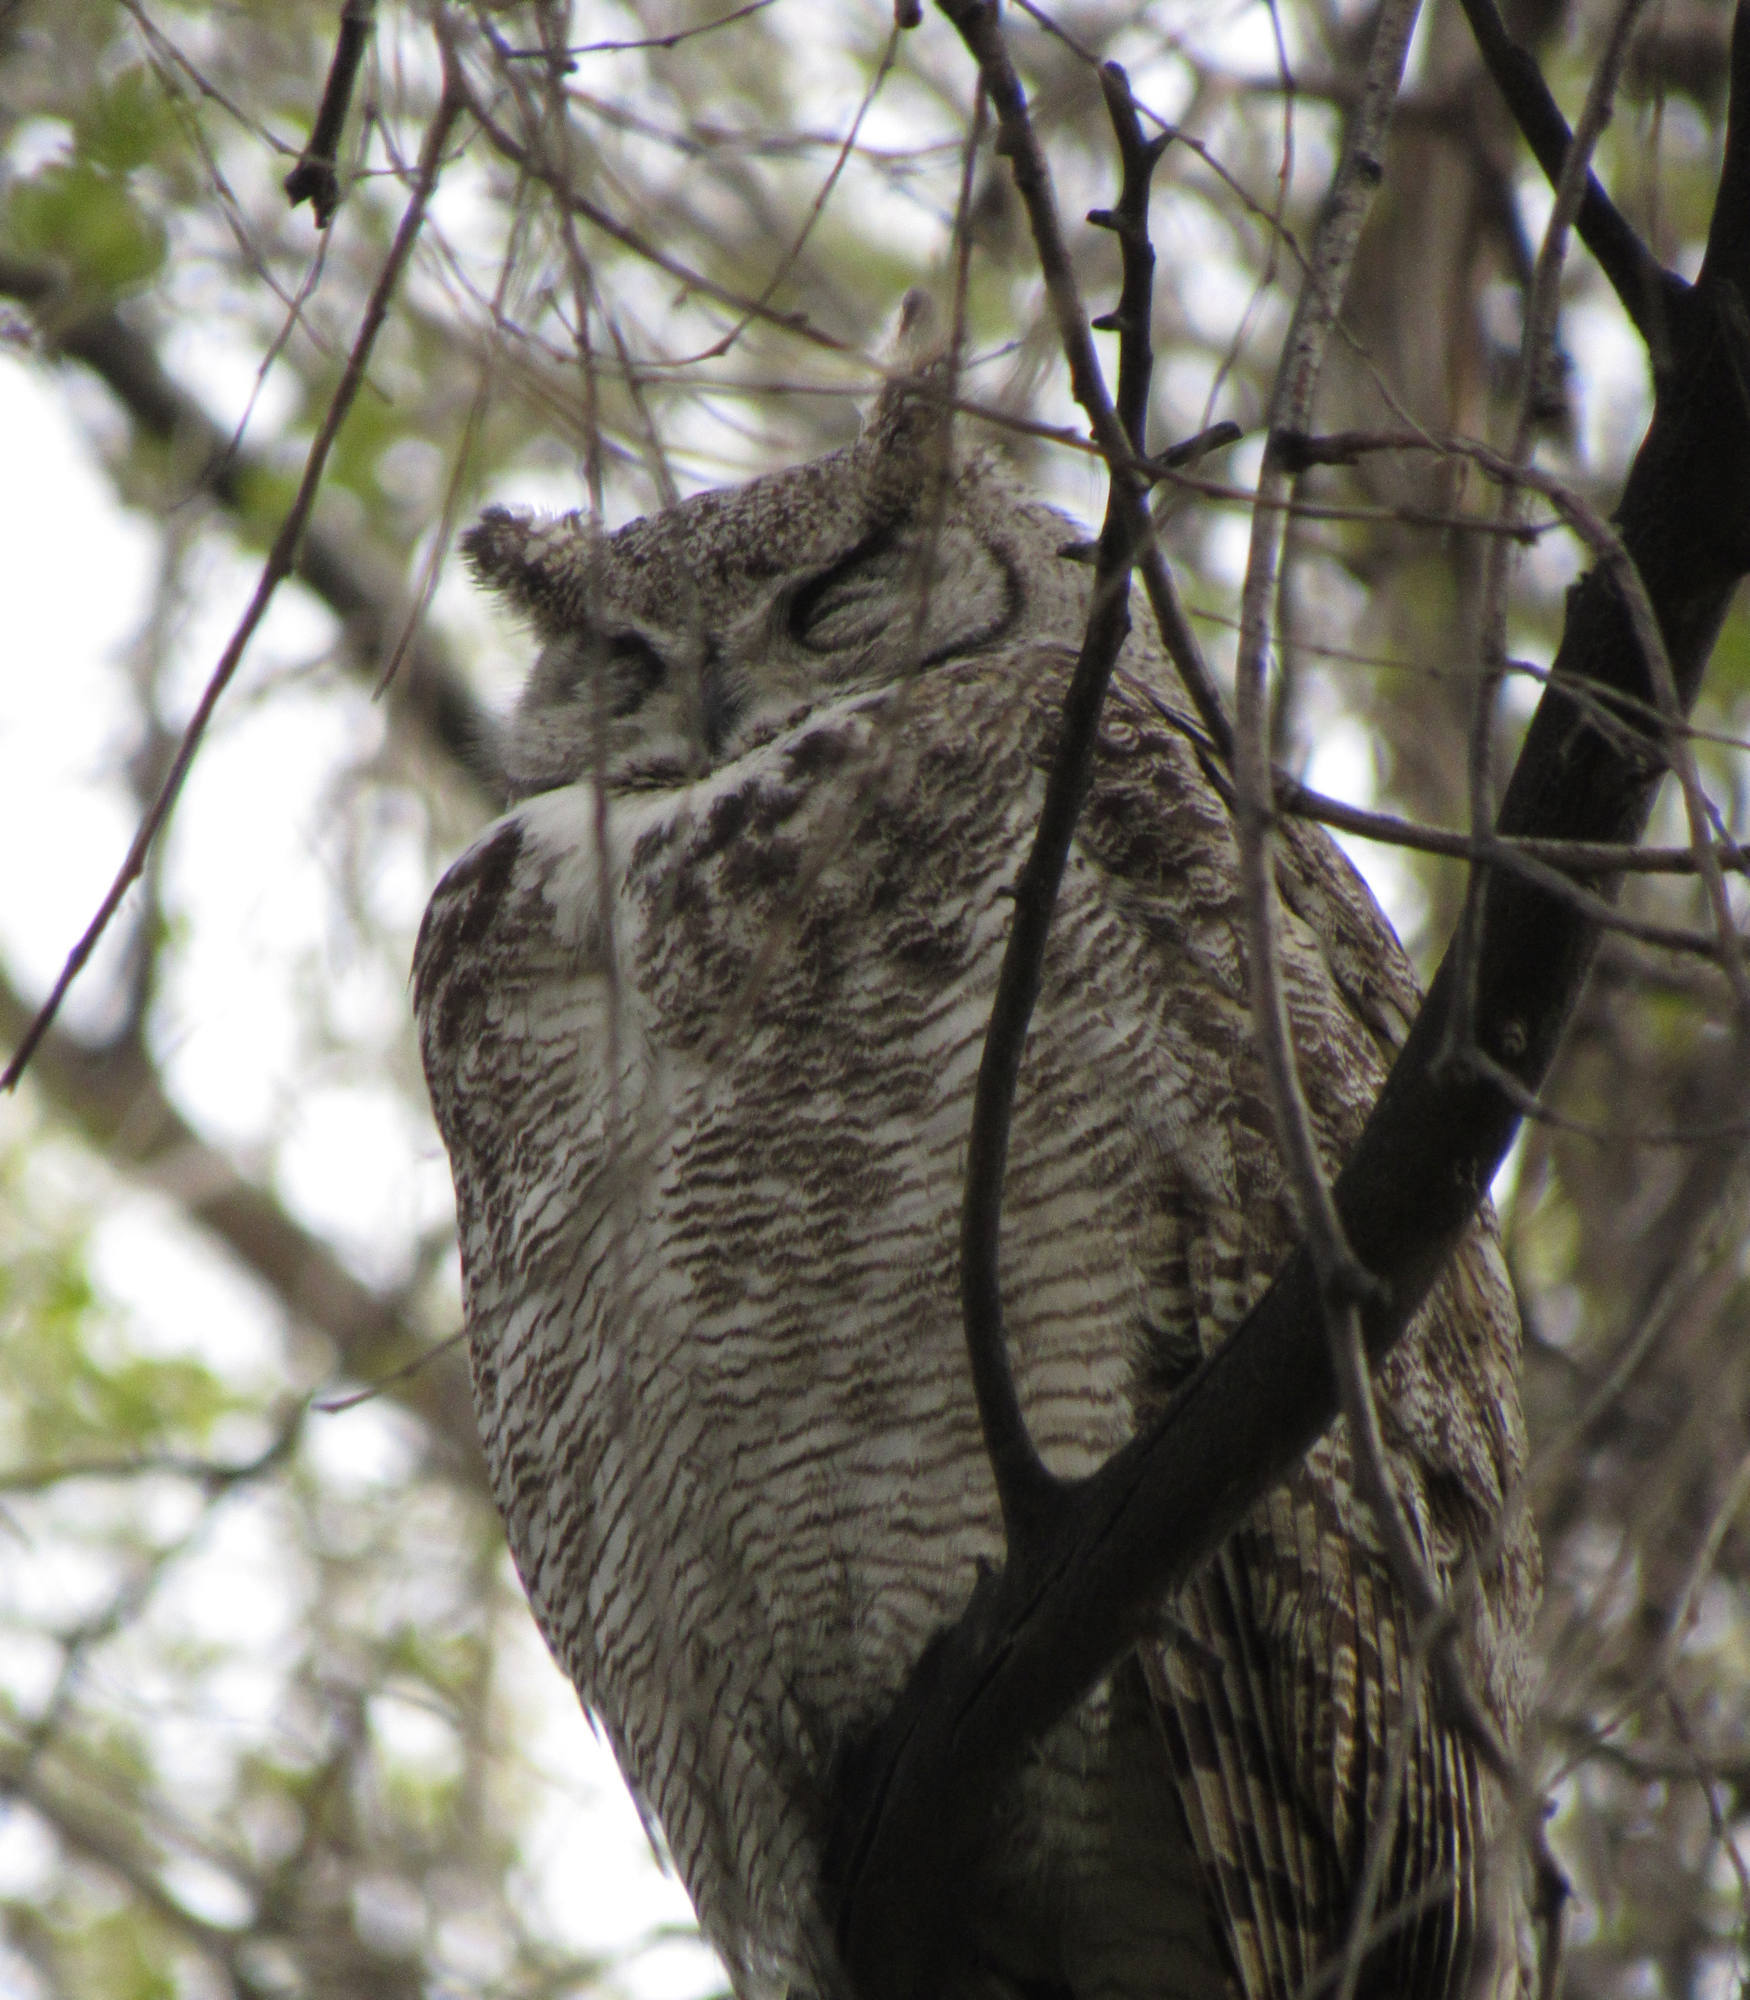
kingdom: Animalia
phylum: Chordata
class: Aves
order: Strigiformes
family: Strigidae
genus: Bubo
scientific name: Bubo virginianus
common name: Great horned owl
